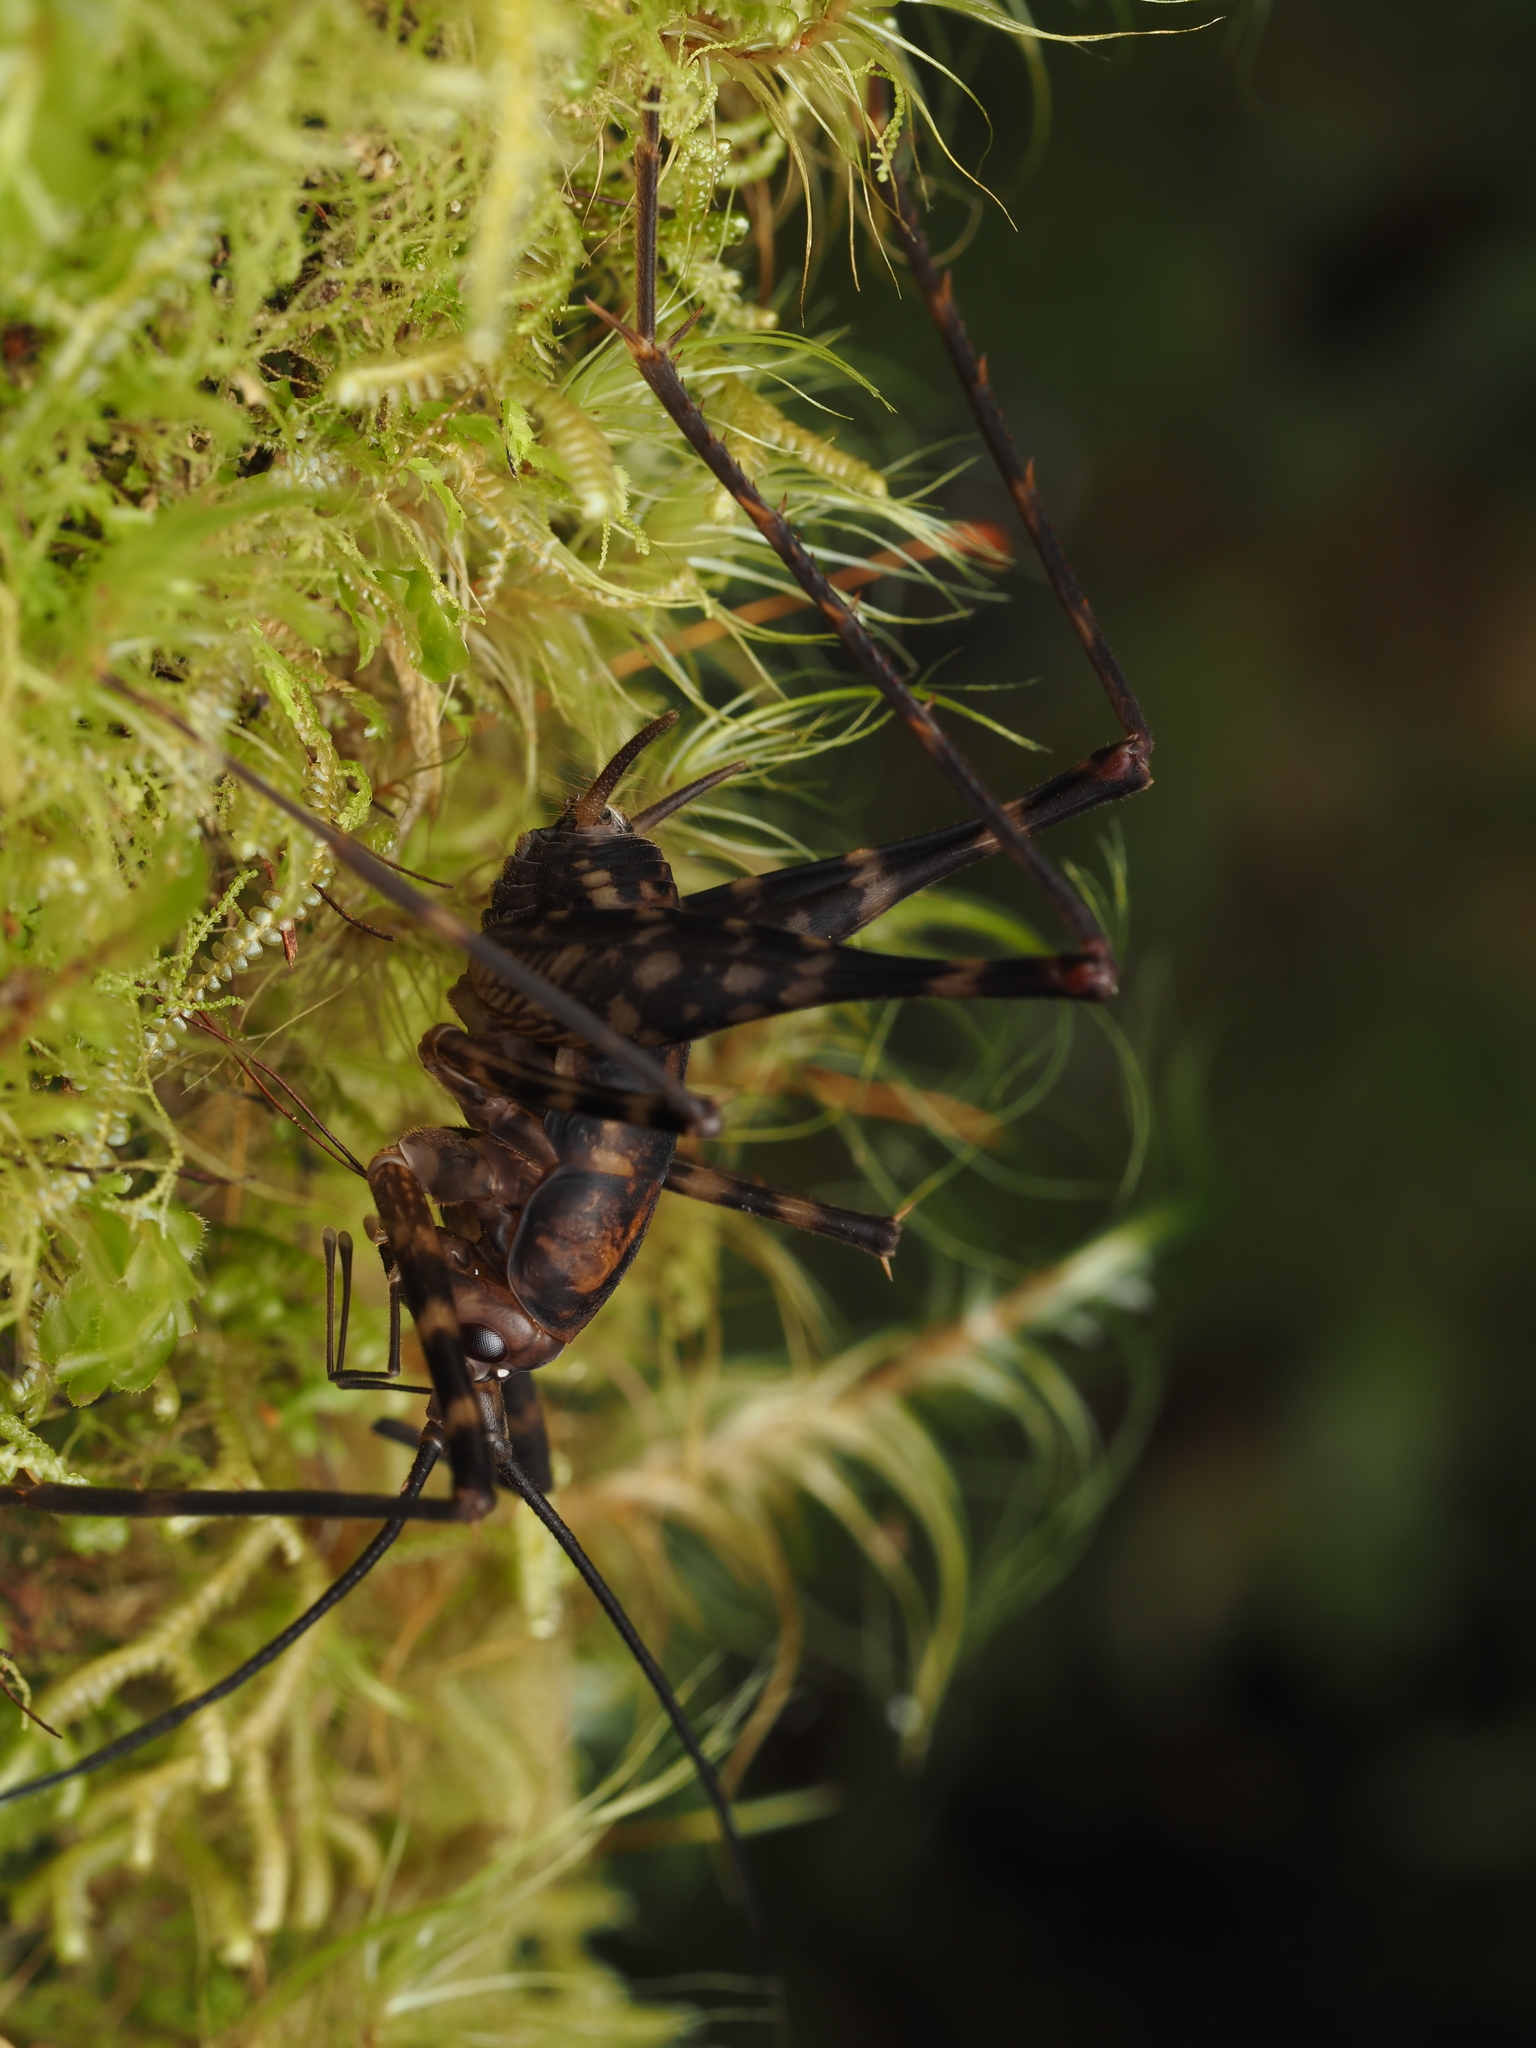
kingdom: Animalia
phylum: Arthropoda
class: Insecta
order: Orthoptera
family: Rhaphidophoridae
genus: Miotopus
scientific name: Miotopus richardsae
